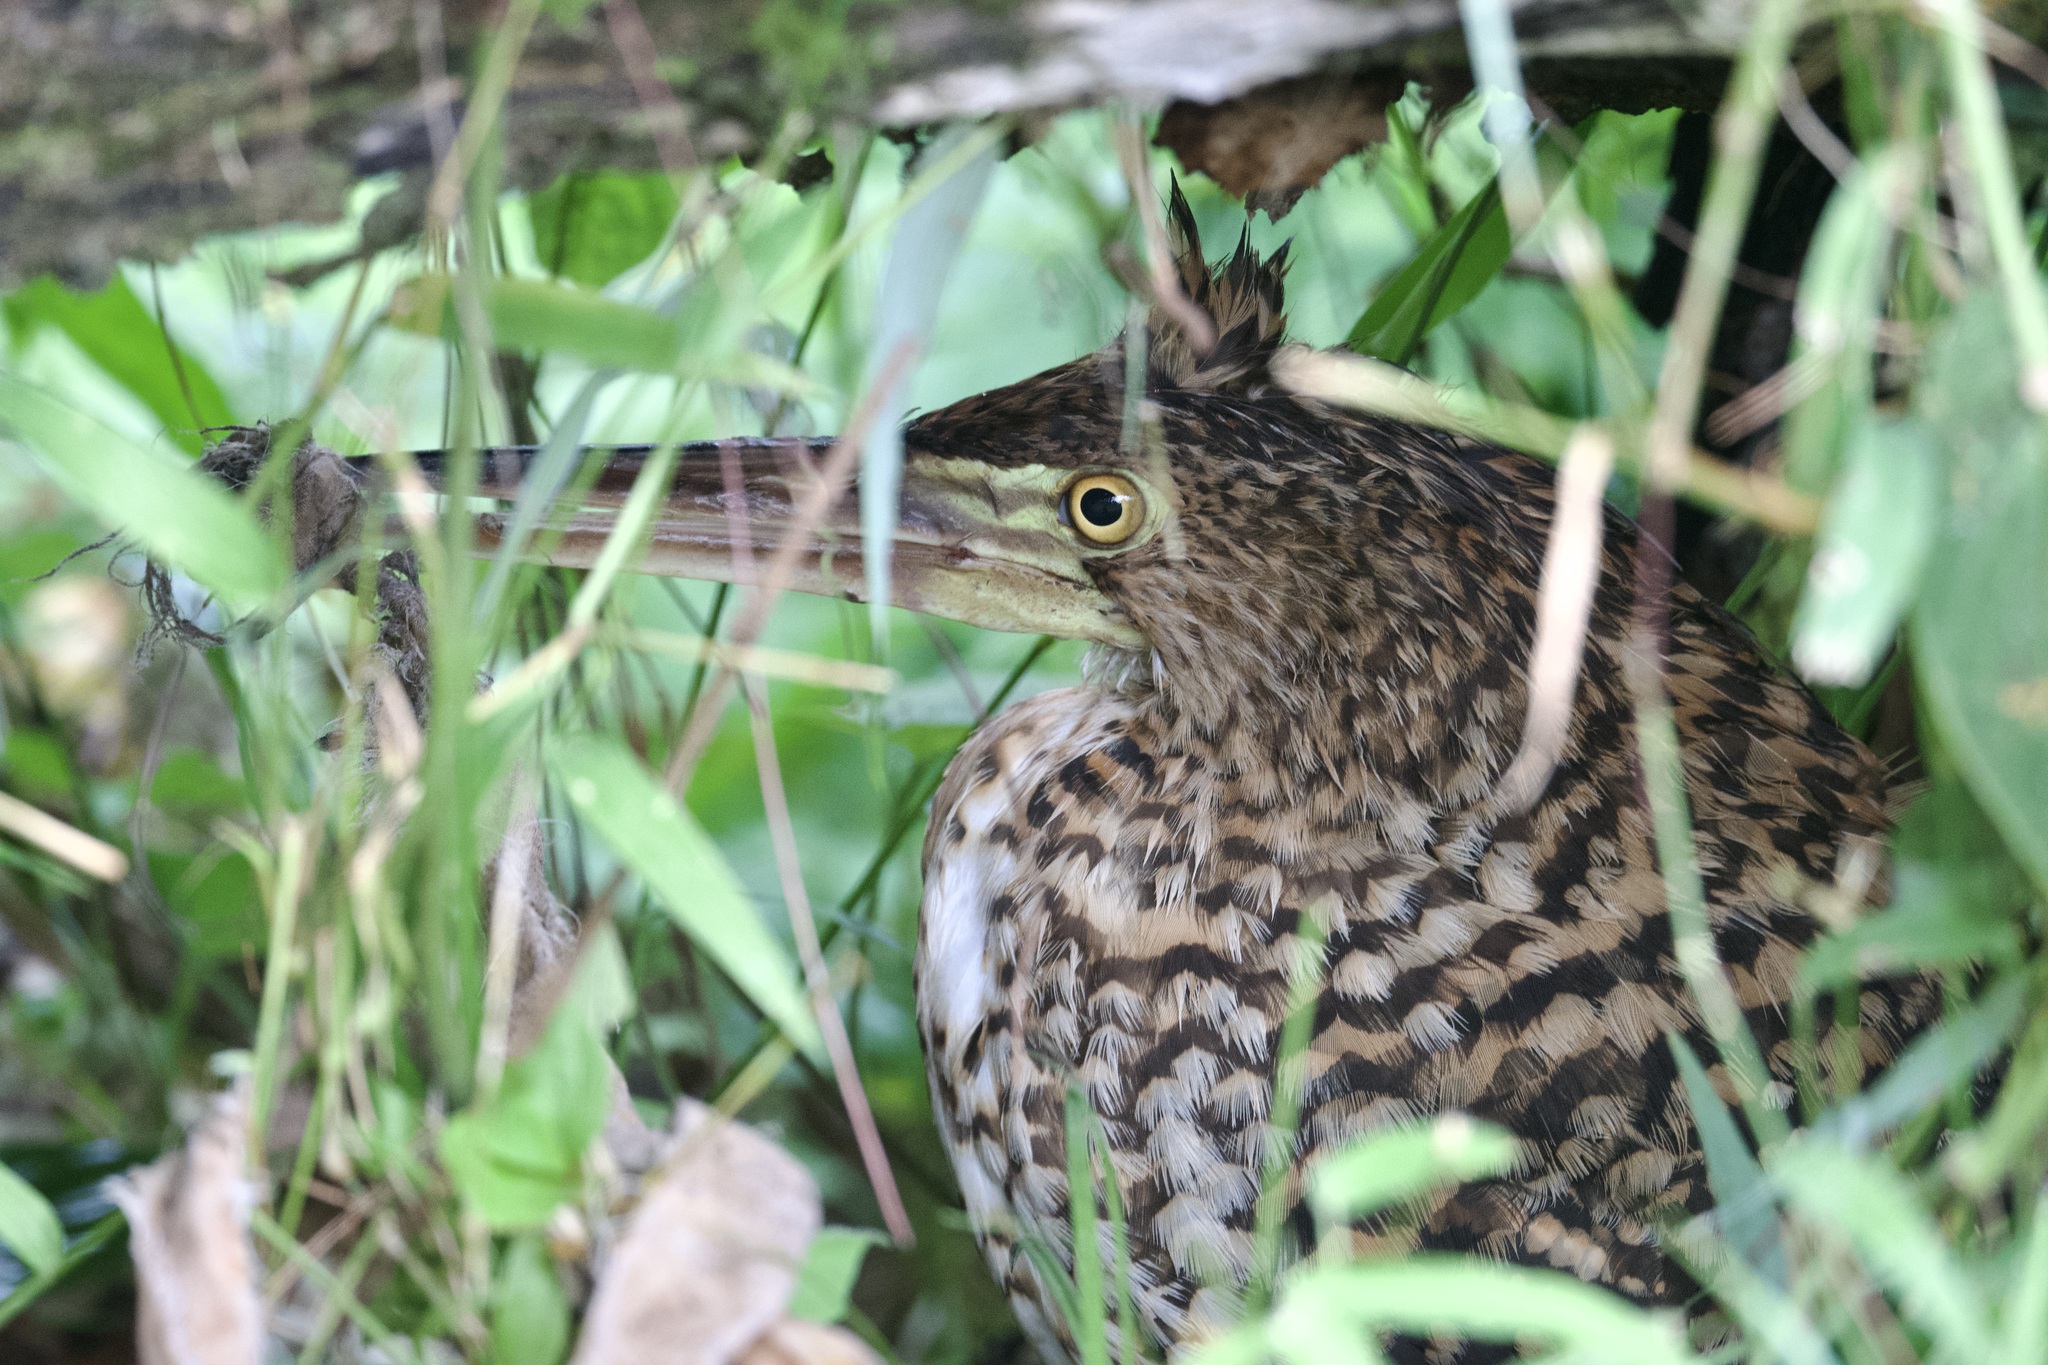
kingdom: Animalia
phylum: Chordata
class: Aves
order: Pelecaniformes
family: Ardeidae
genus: Tigrisoma
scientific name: Tigrisoma lineatum
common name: Rufescent tiger-heron
